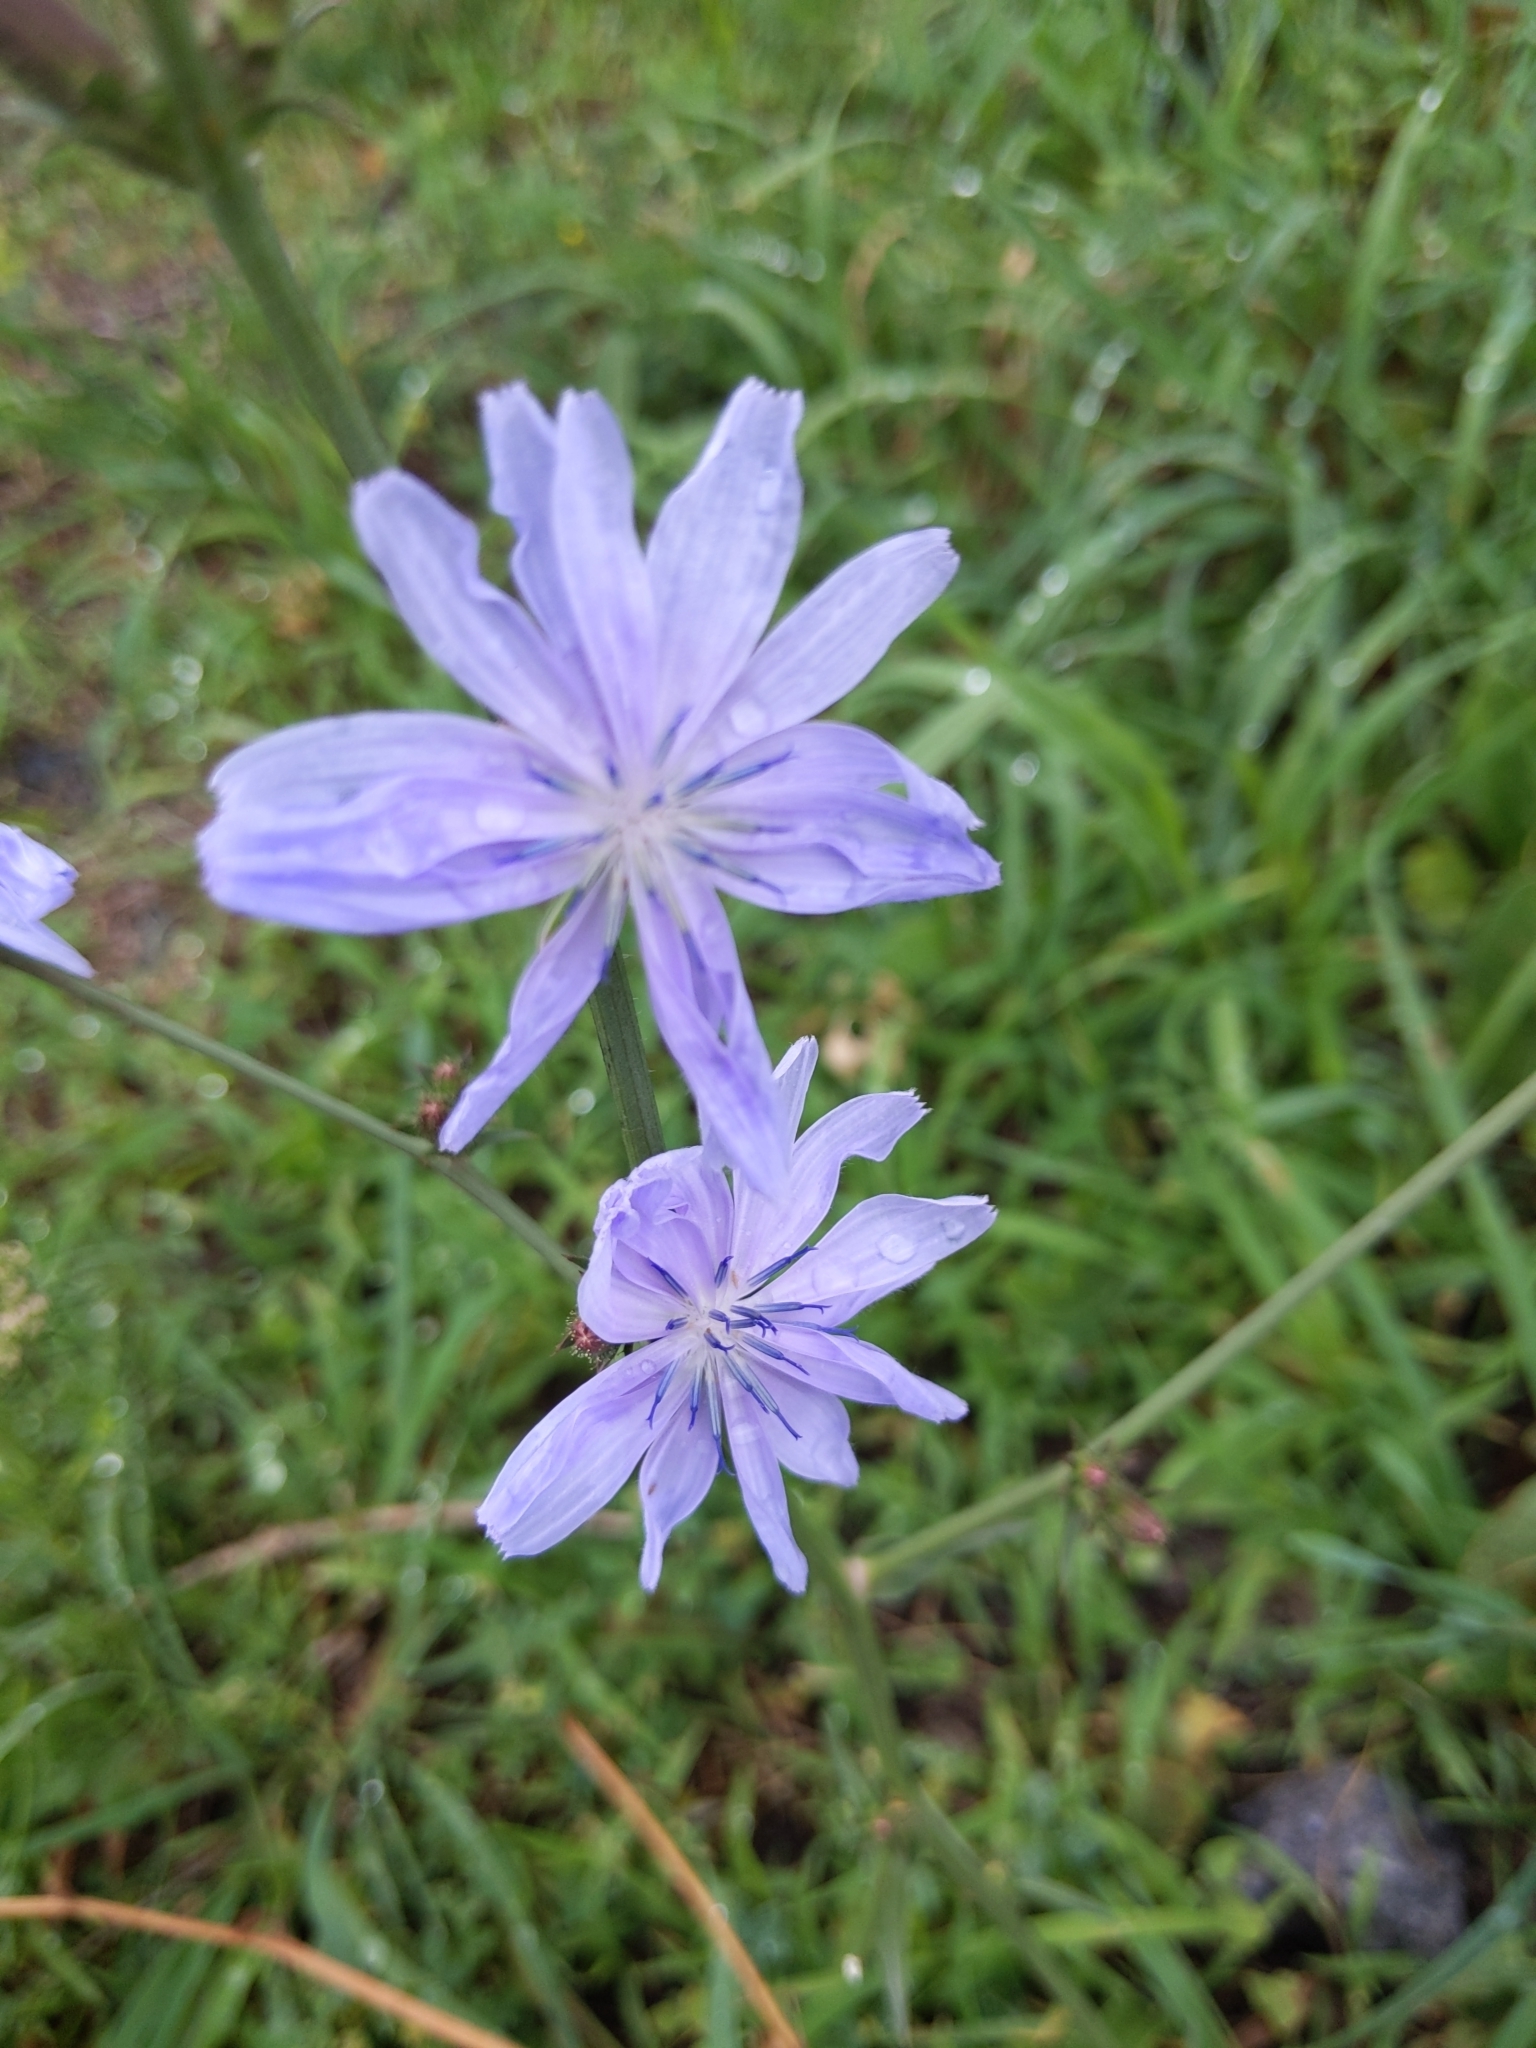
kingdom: Plantae
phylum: Tracheophyta
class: Magnoliopsida
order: Asterales
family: Asteraceae
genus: Cichorium
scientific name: Cichorium intybus
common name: Chicory
